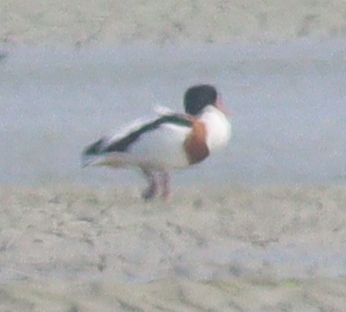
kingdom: Animalia
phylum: Chordata
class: Aves
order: Anseriformes
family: Anatidae
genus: Tadorna
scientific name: Tadorna tadorna
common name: Common shelduck
